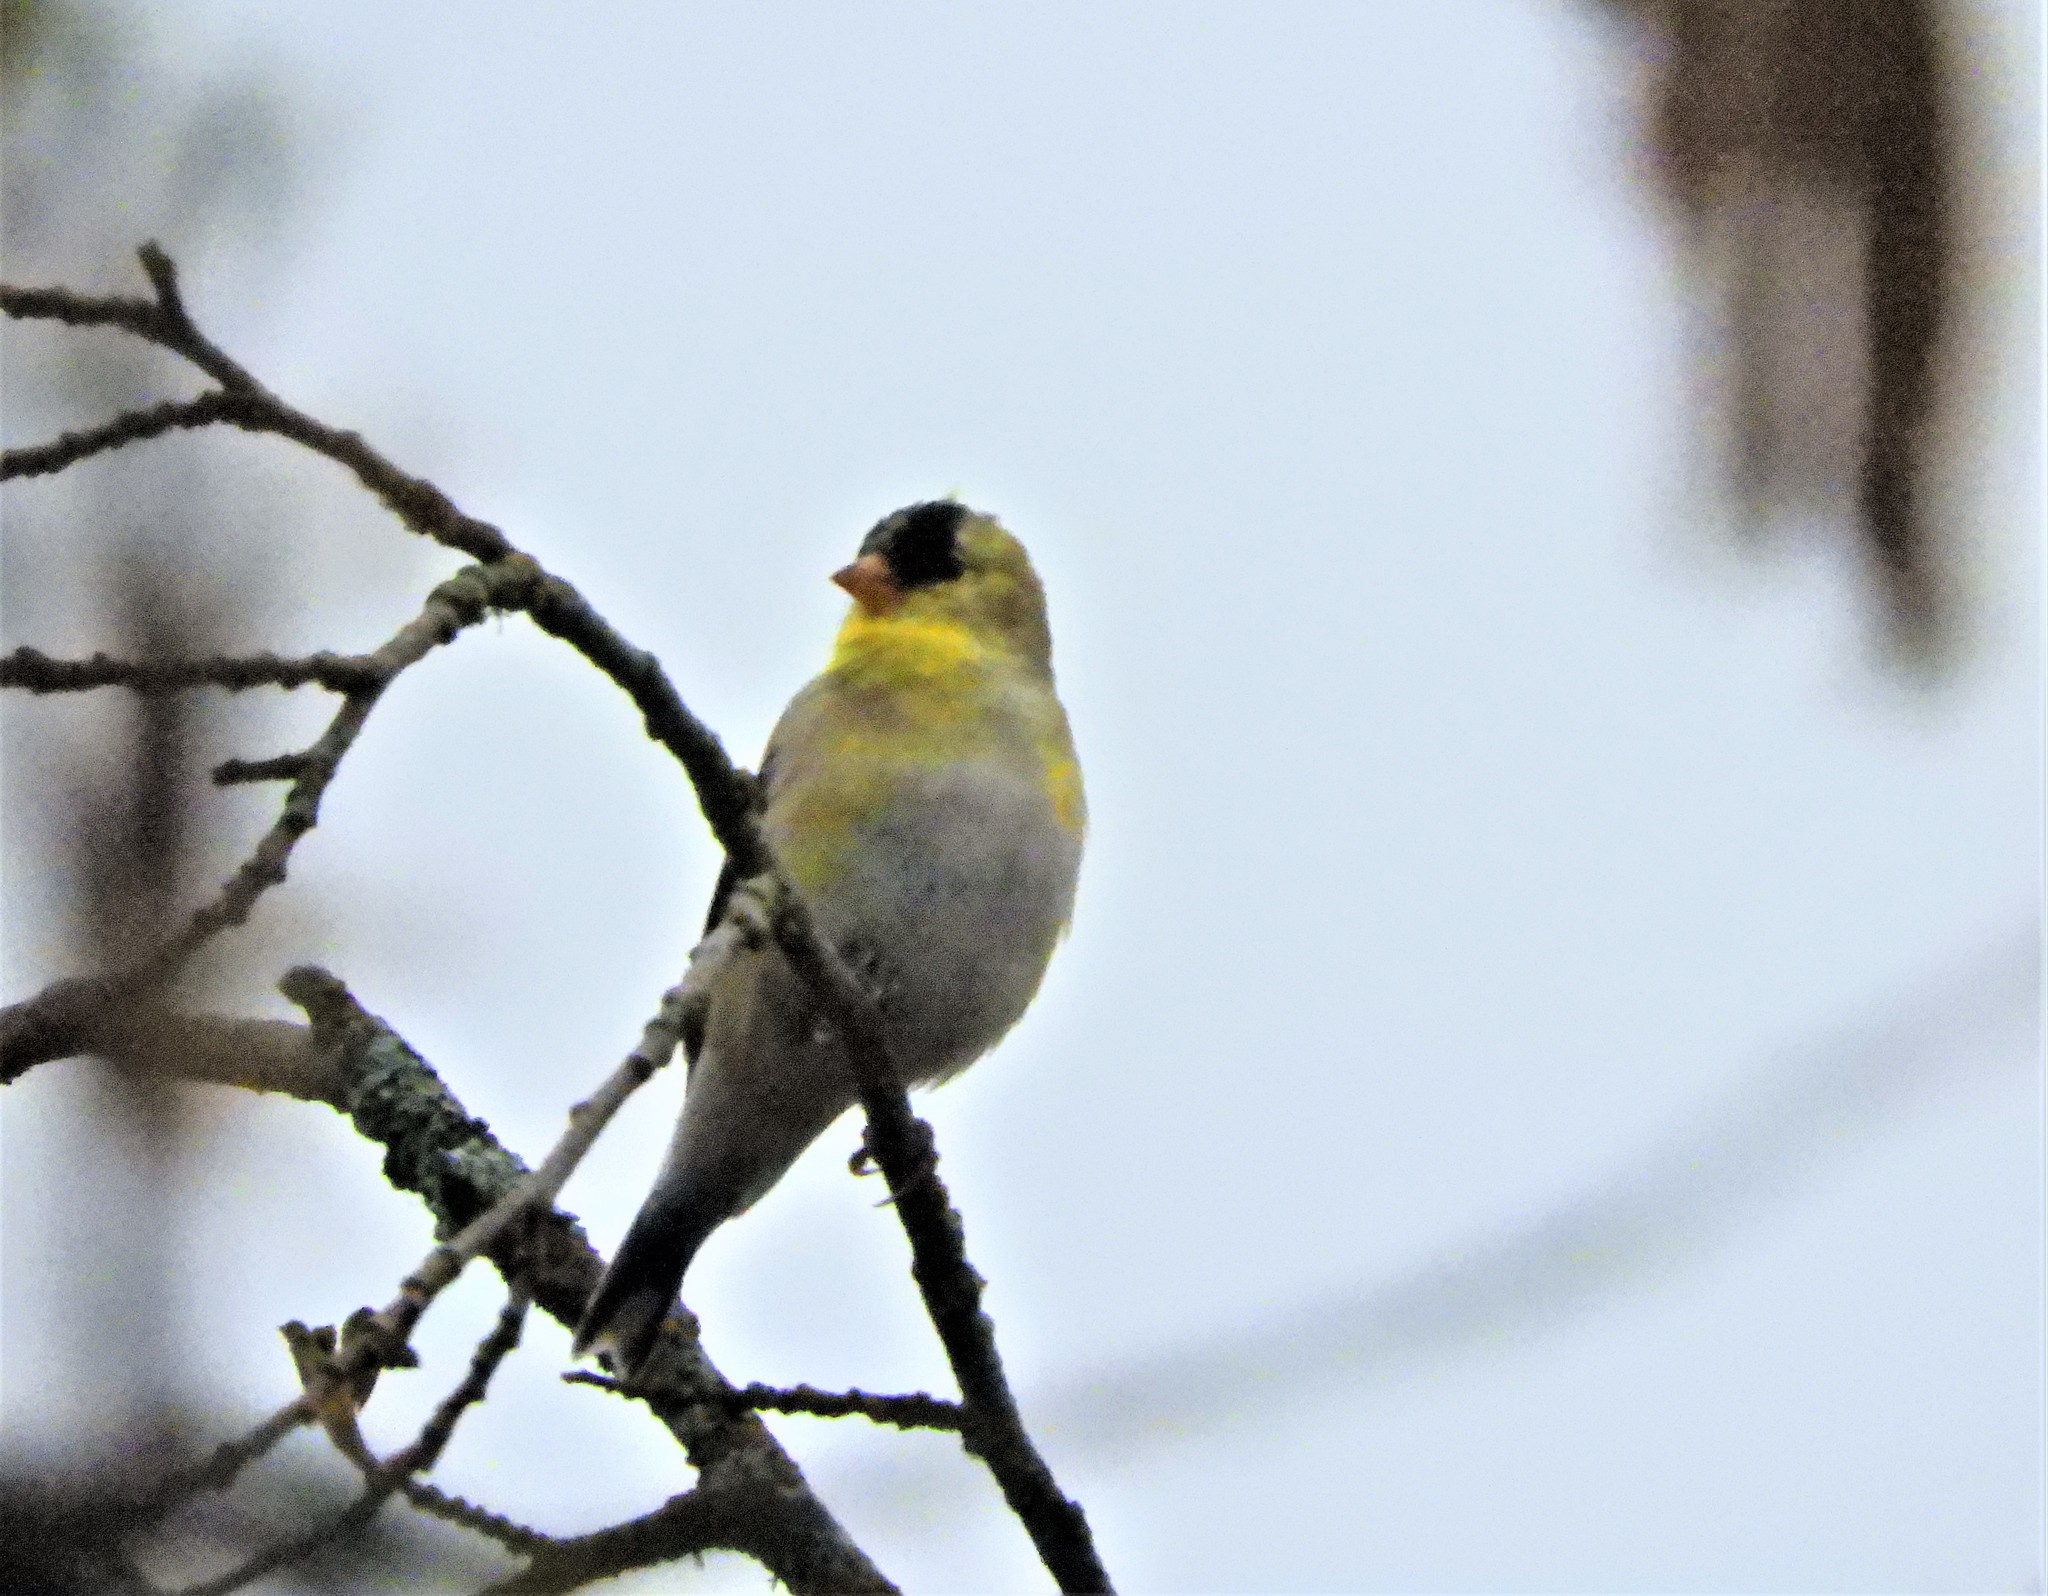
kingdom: Animalia
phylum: Chordata
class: Aves
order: Passeriformes
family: Fringillidae
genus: Spinus
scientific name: Spinus tristis
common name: American goldfinch
